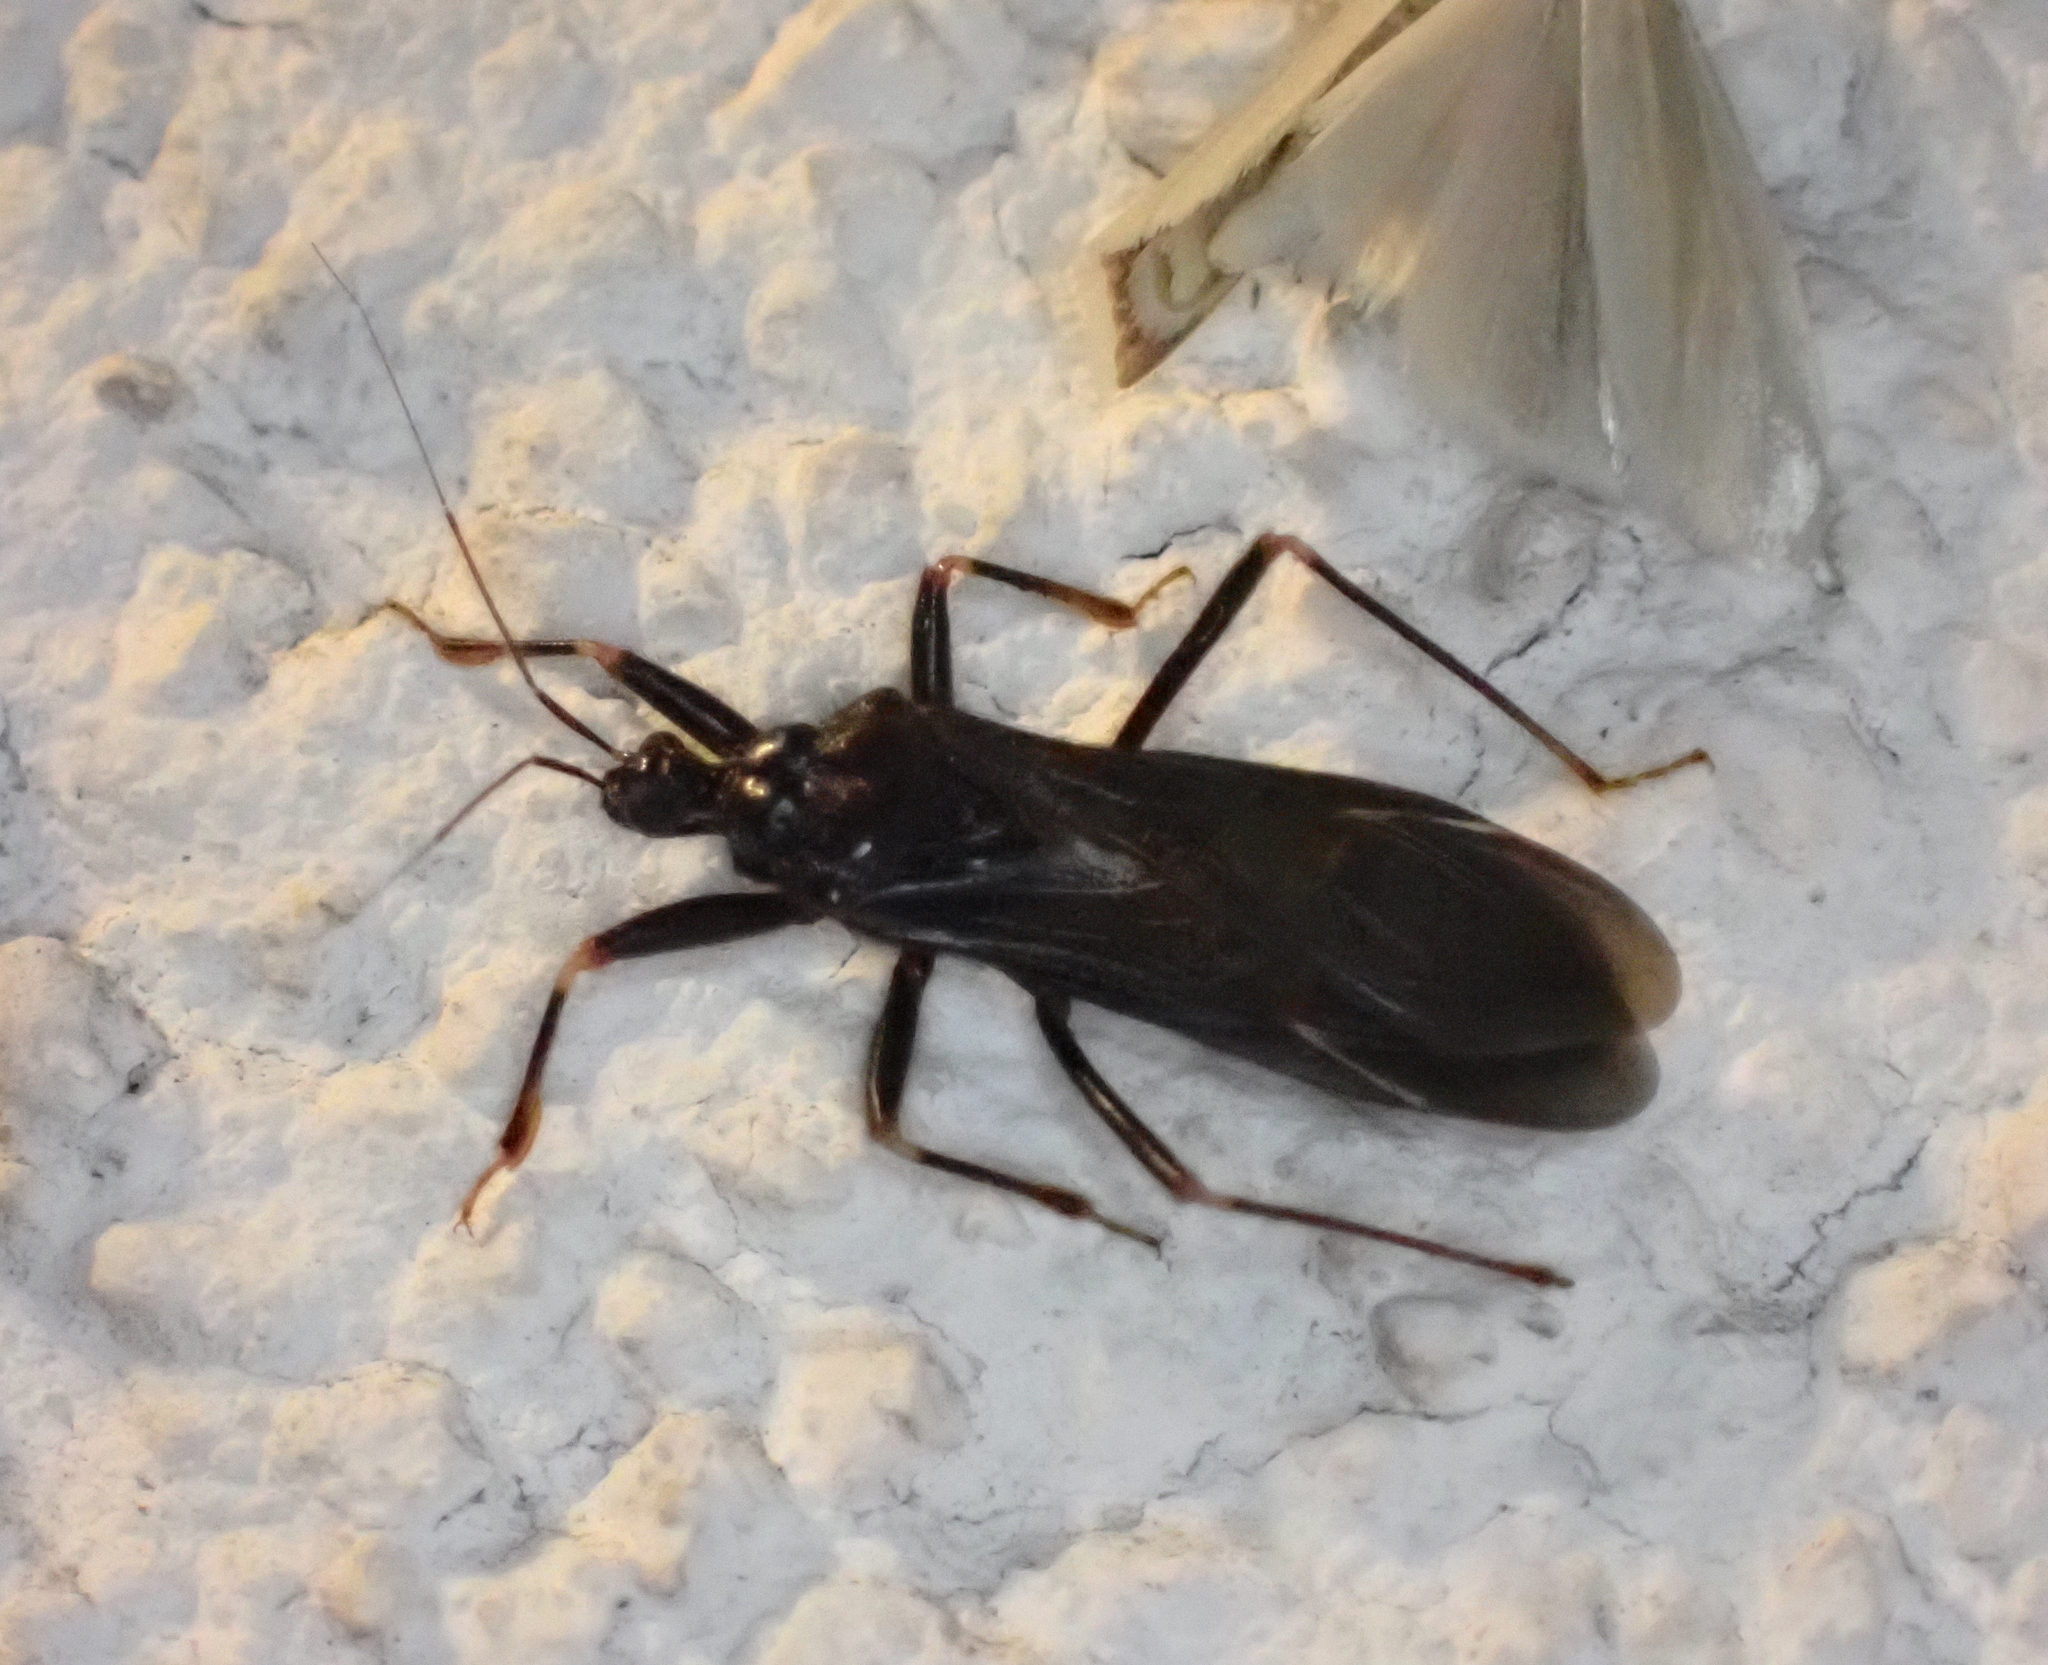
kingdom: Animalia
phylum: Arthropoda
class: Insecta
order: Hemiptera
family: Reduviidae
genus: Reduvius
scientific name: Reduvius personatus
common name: Masked hunter
